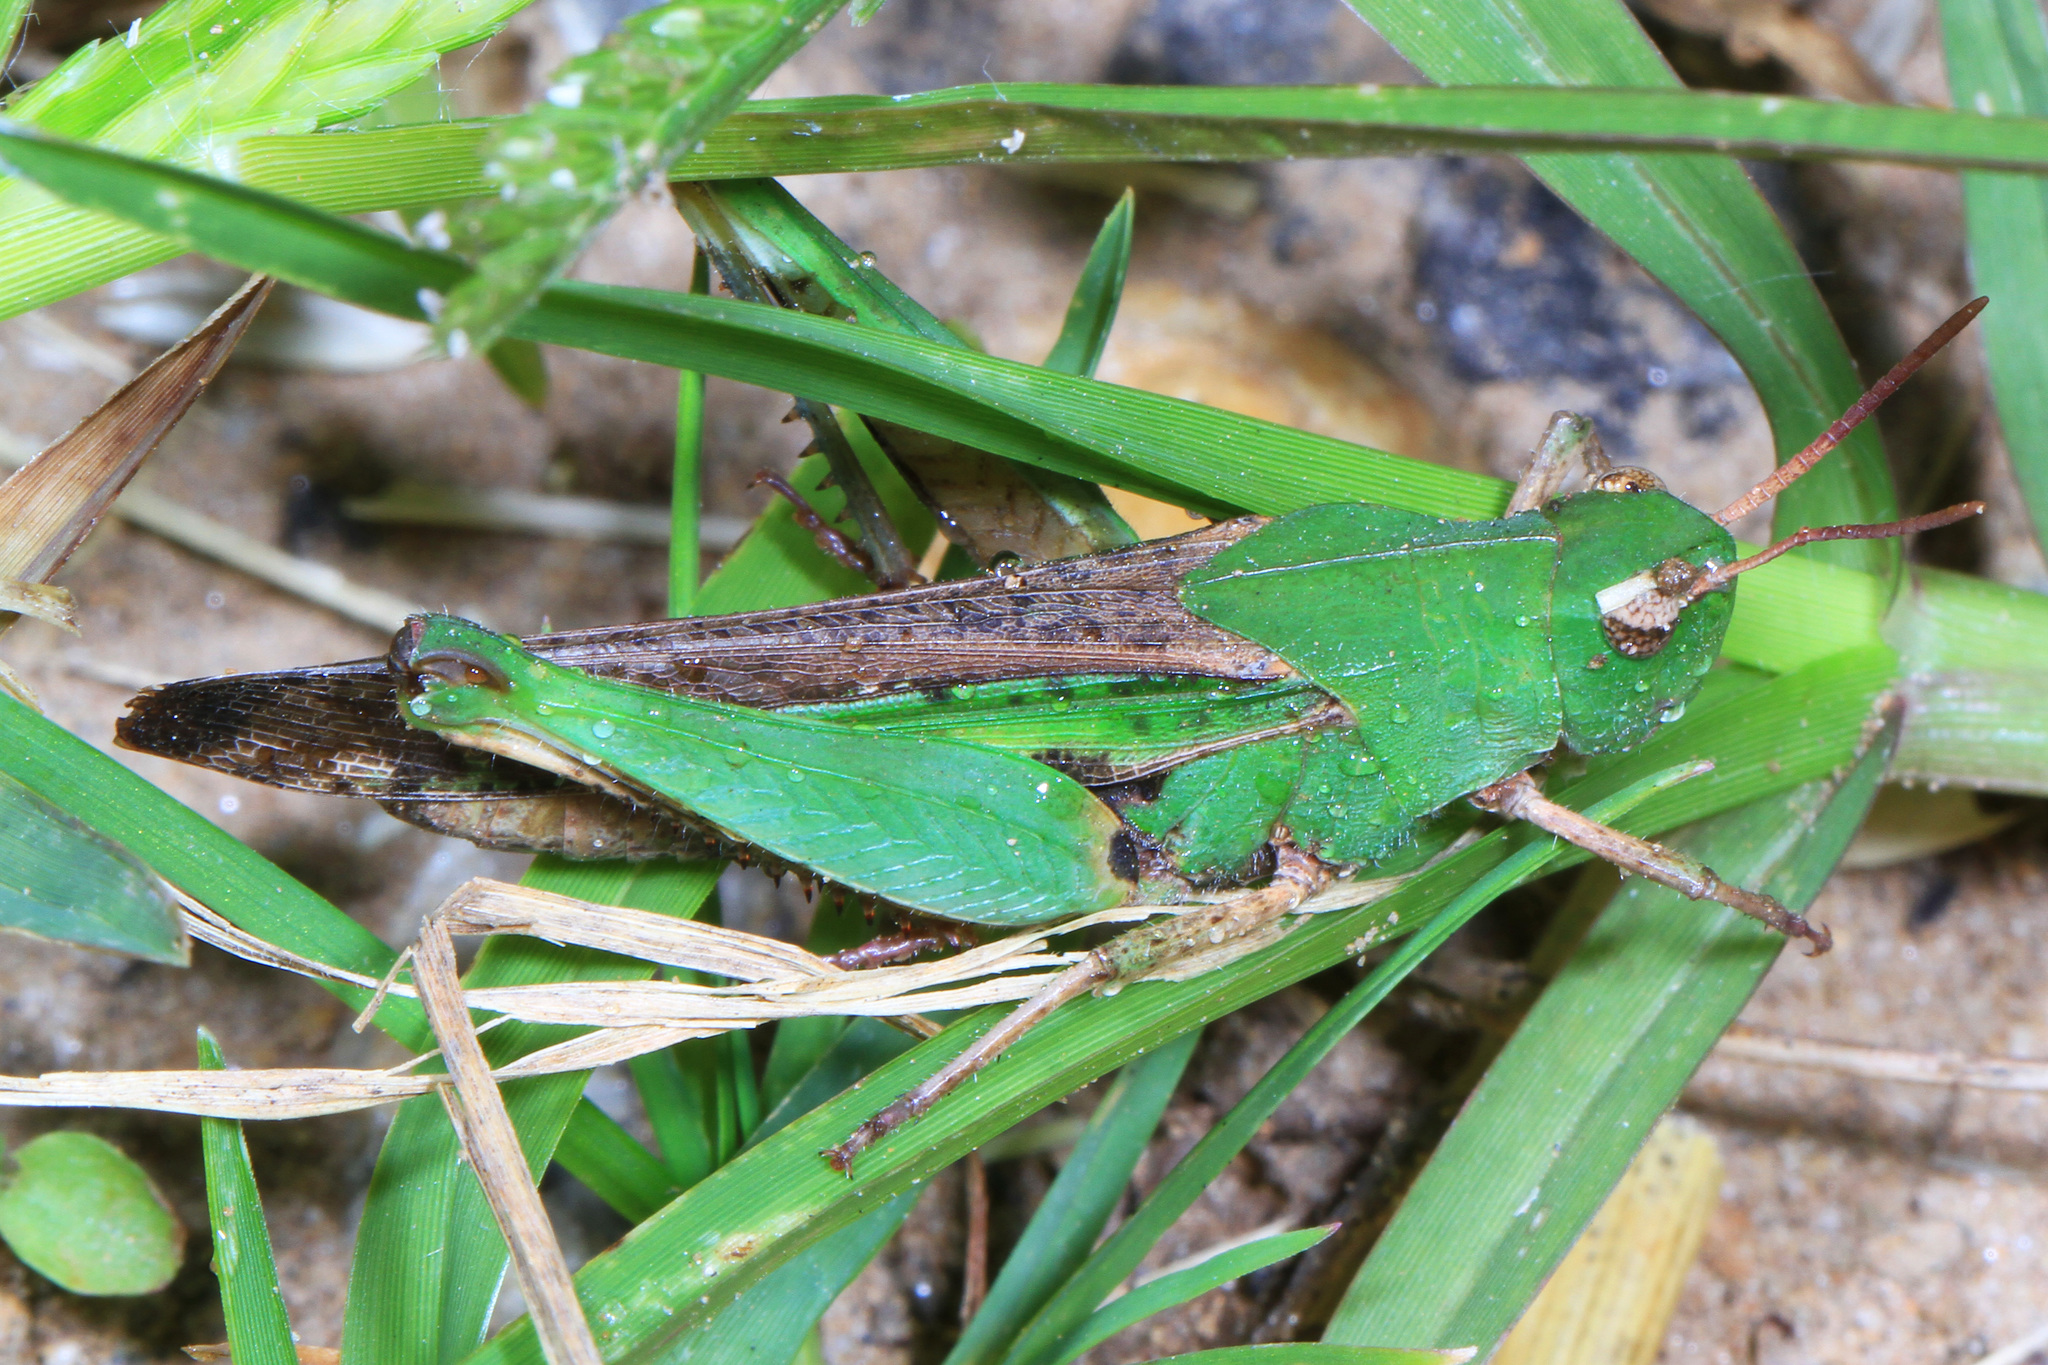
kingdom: Animalia
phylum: Arthropoda
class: Insecta
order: Orthoptera
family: Acrididae
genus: Chortophaga
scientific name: Chortophaga viridifasciata
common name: Green-striped grasshopper
